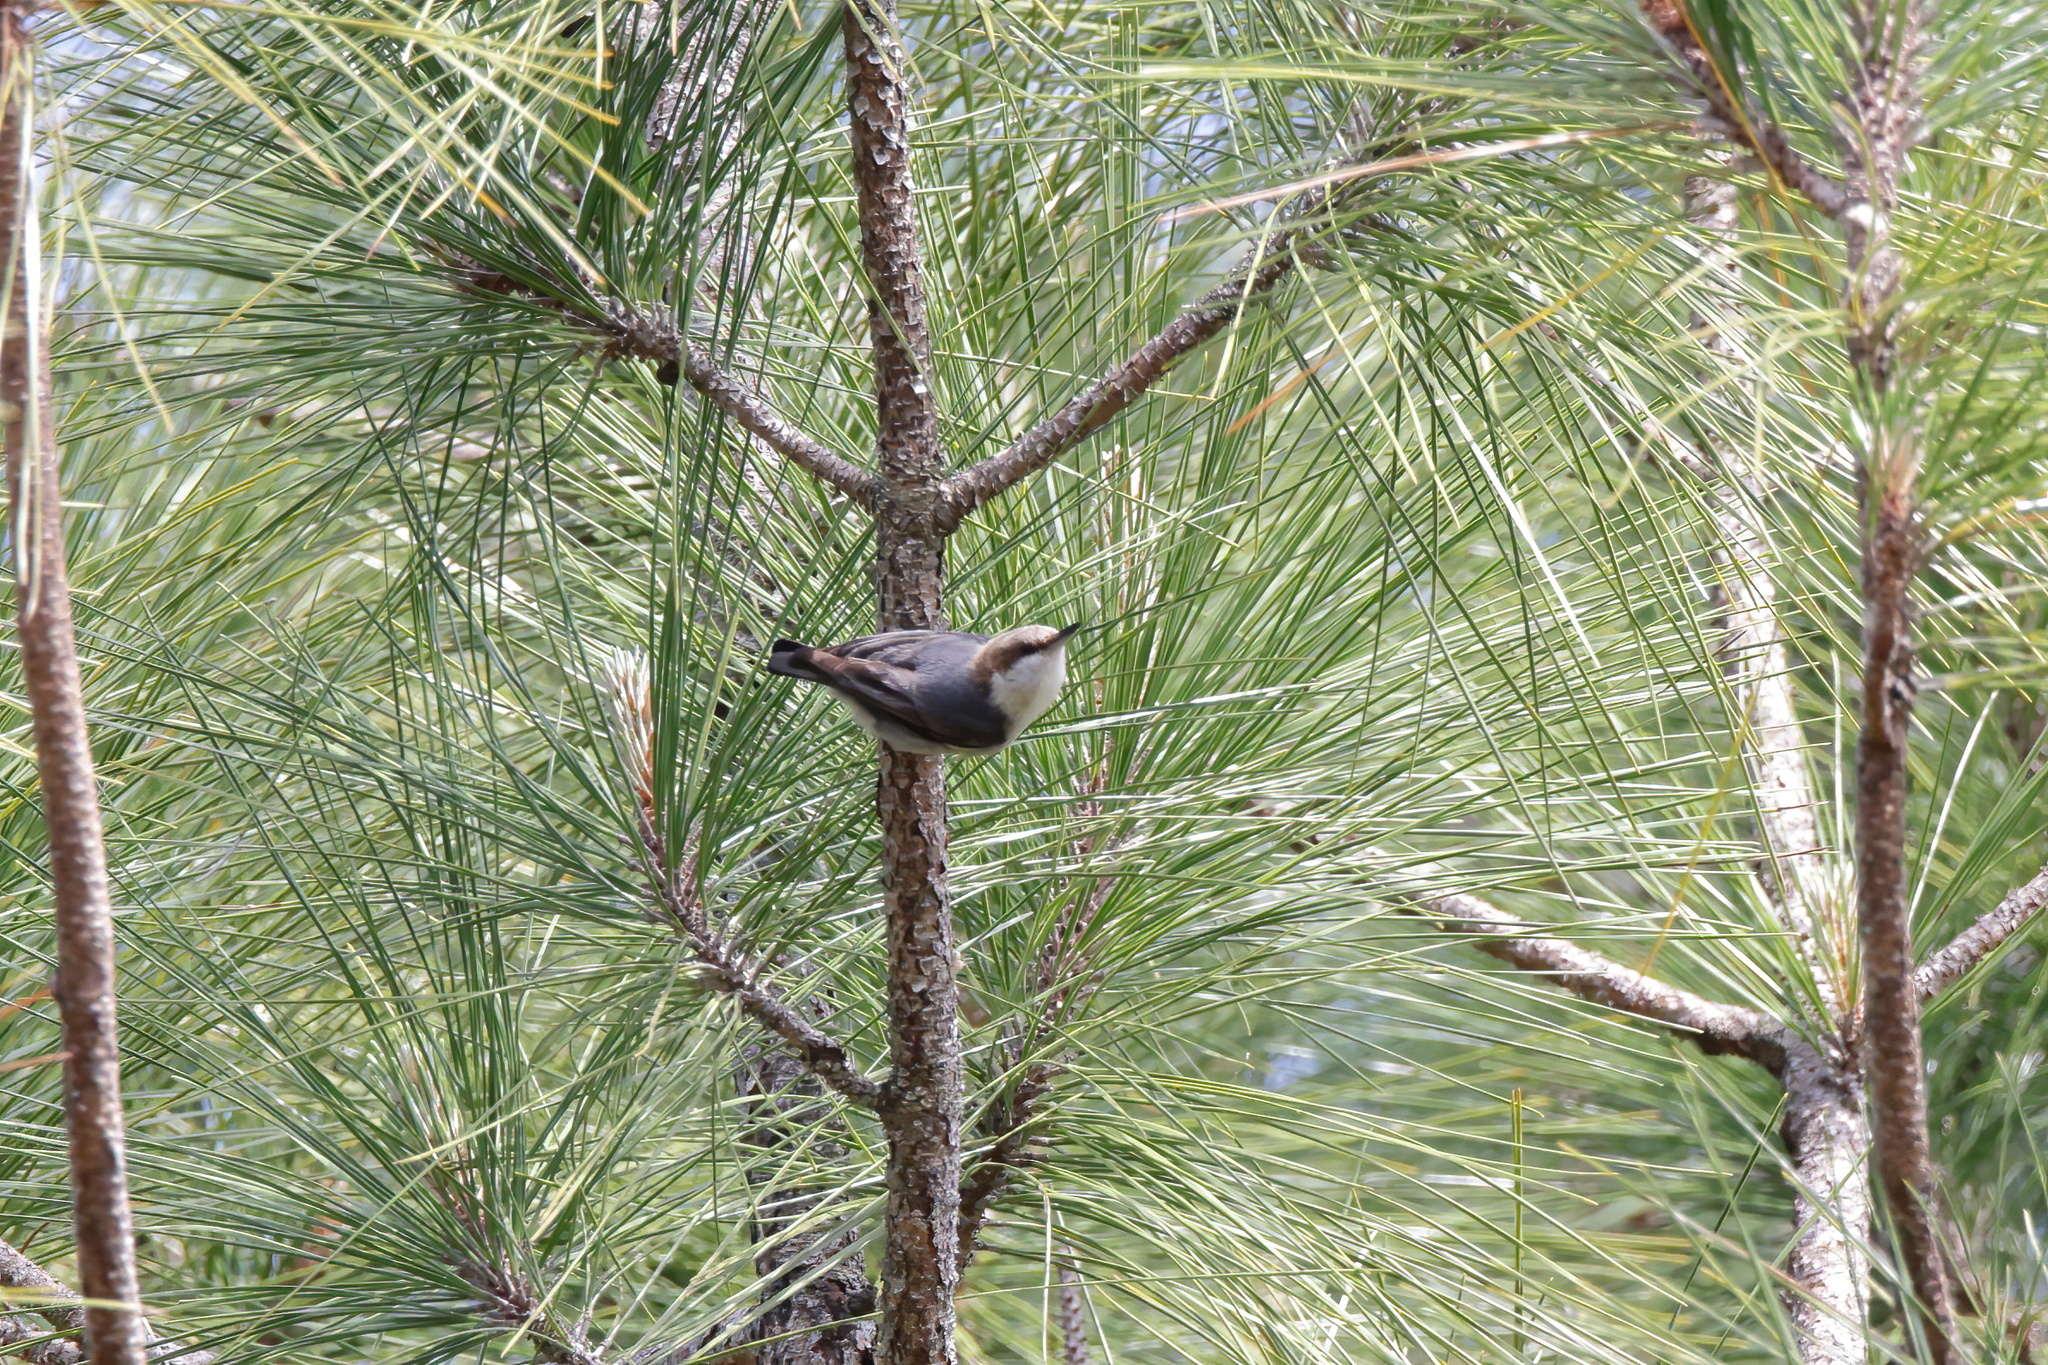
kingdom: Animalia
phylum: Chordata
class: Aves
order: Passeriformes
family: Sittidae
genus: Sitta
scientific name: Sitta pusilla
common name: Brown-headed nuthatch
